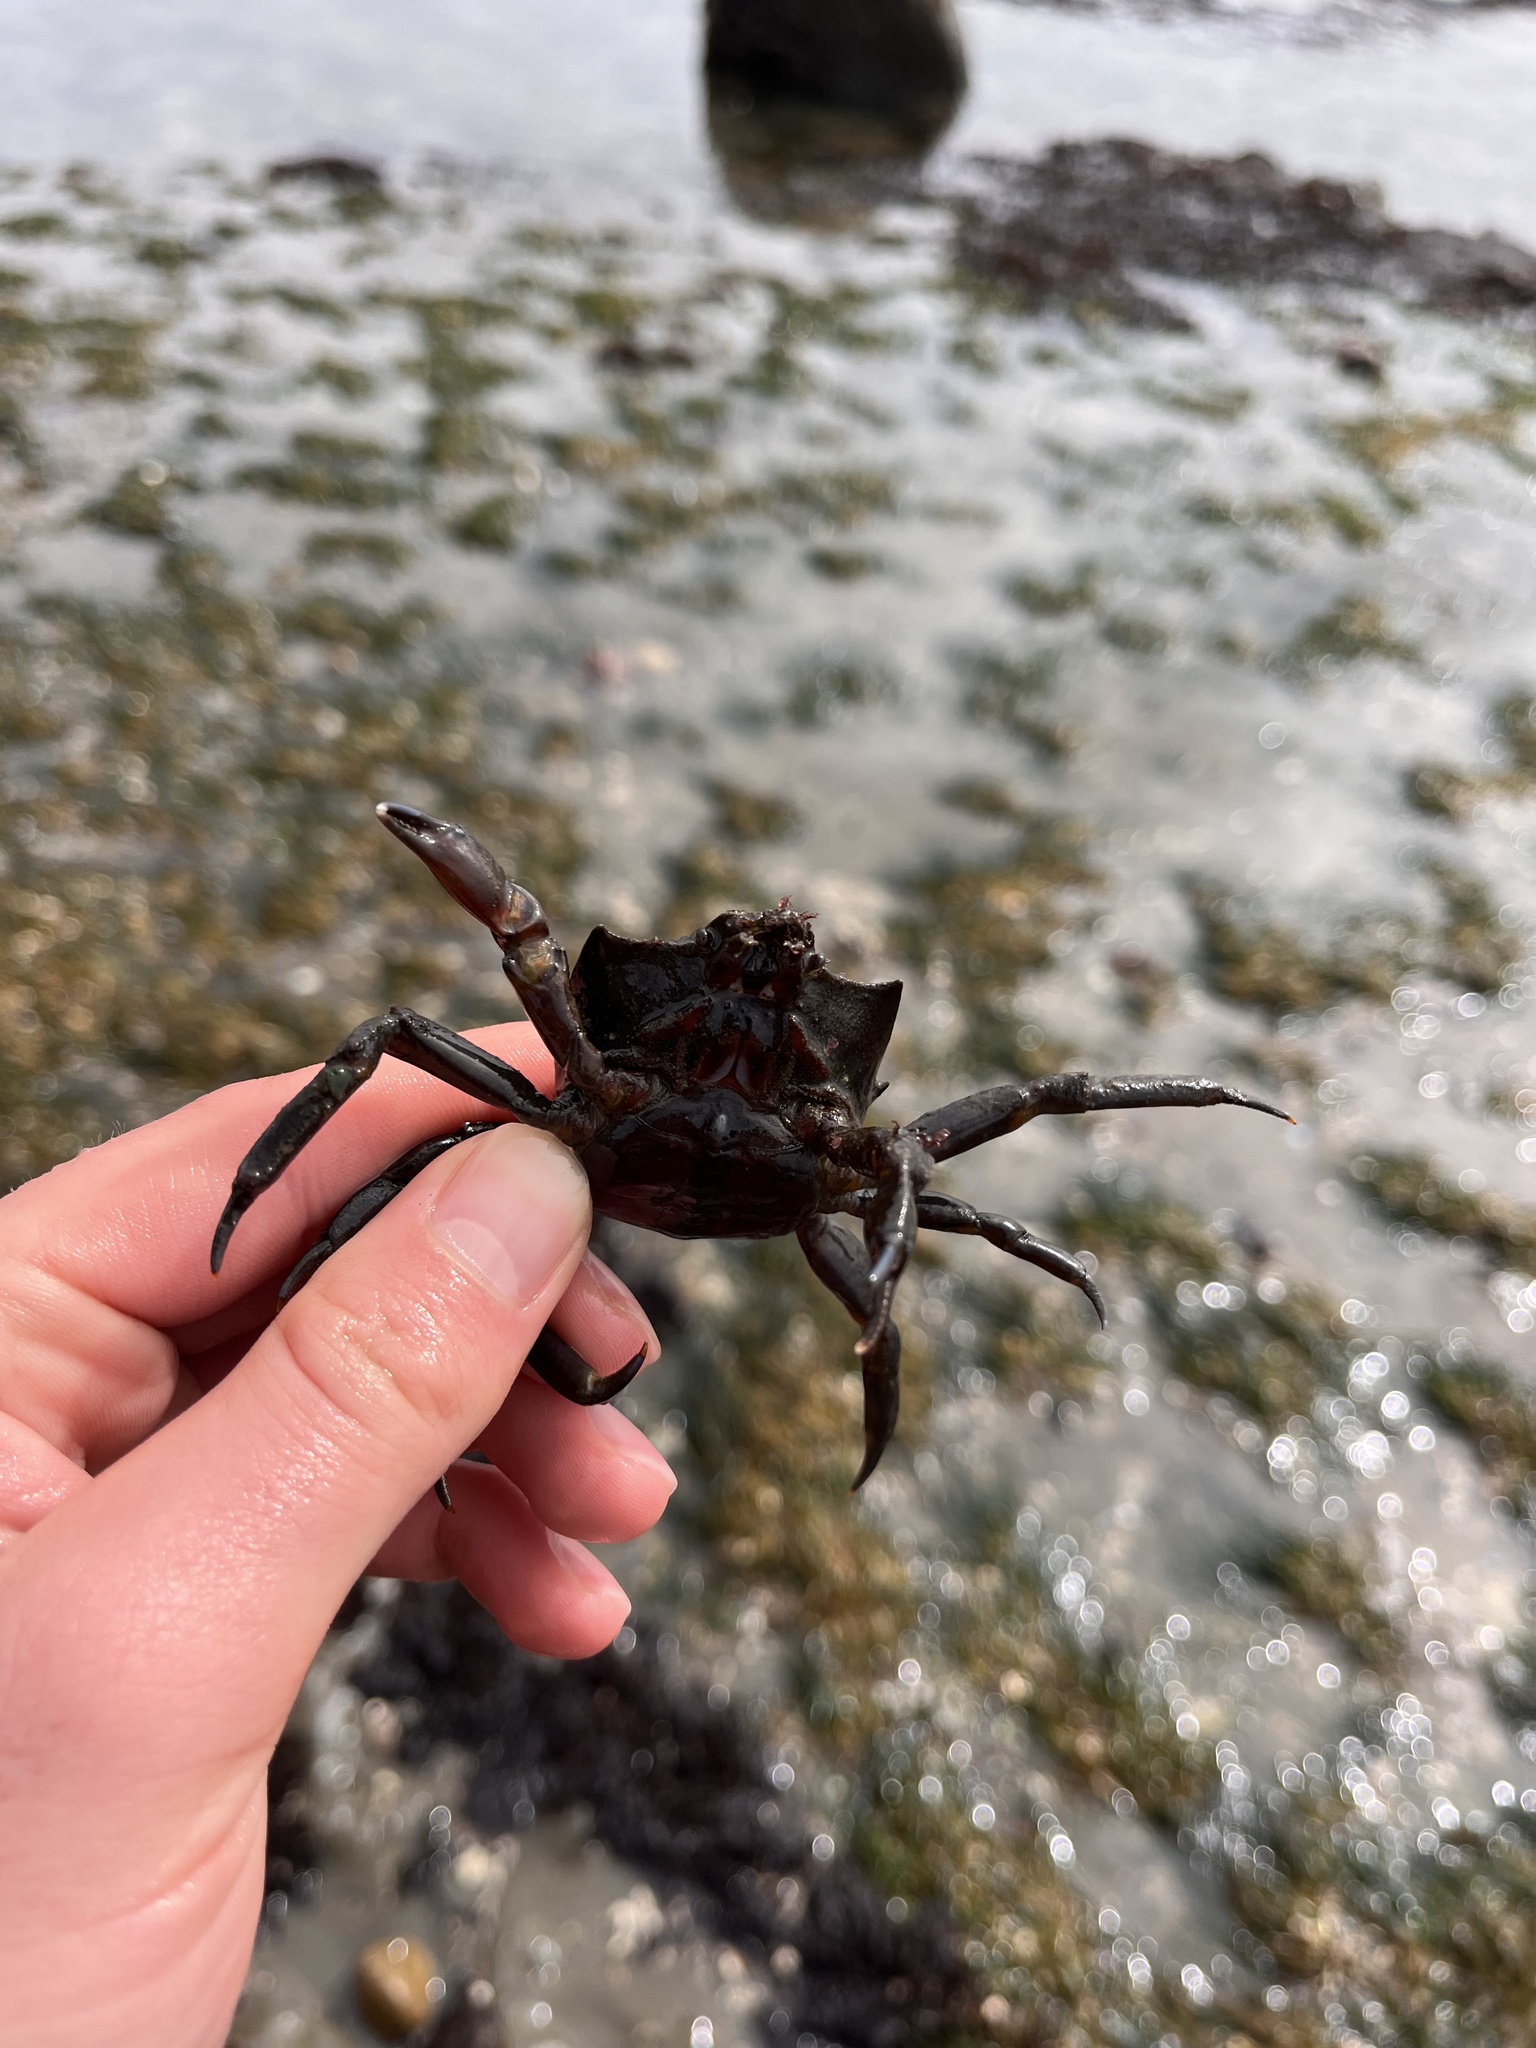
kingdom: Animalia
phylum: Arthropoda
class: Malacostraca
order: Decapoda
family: Epialtidae
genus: Pugettia
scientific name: Pugettia producta
